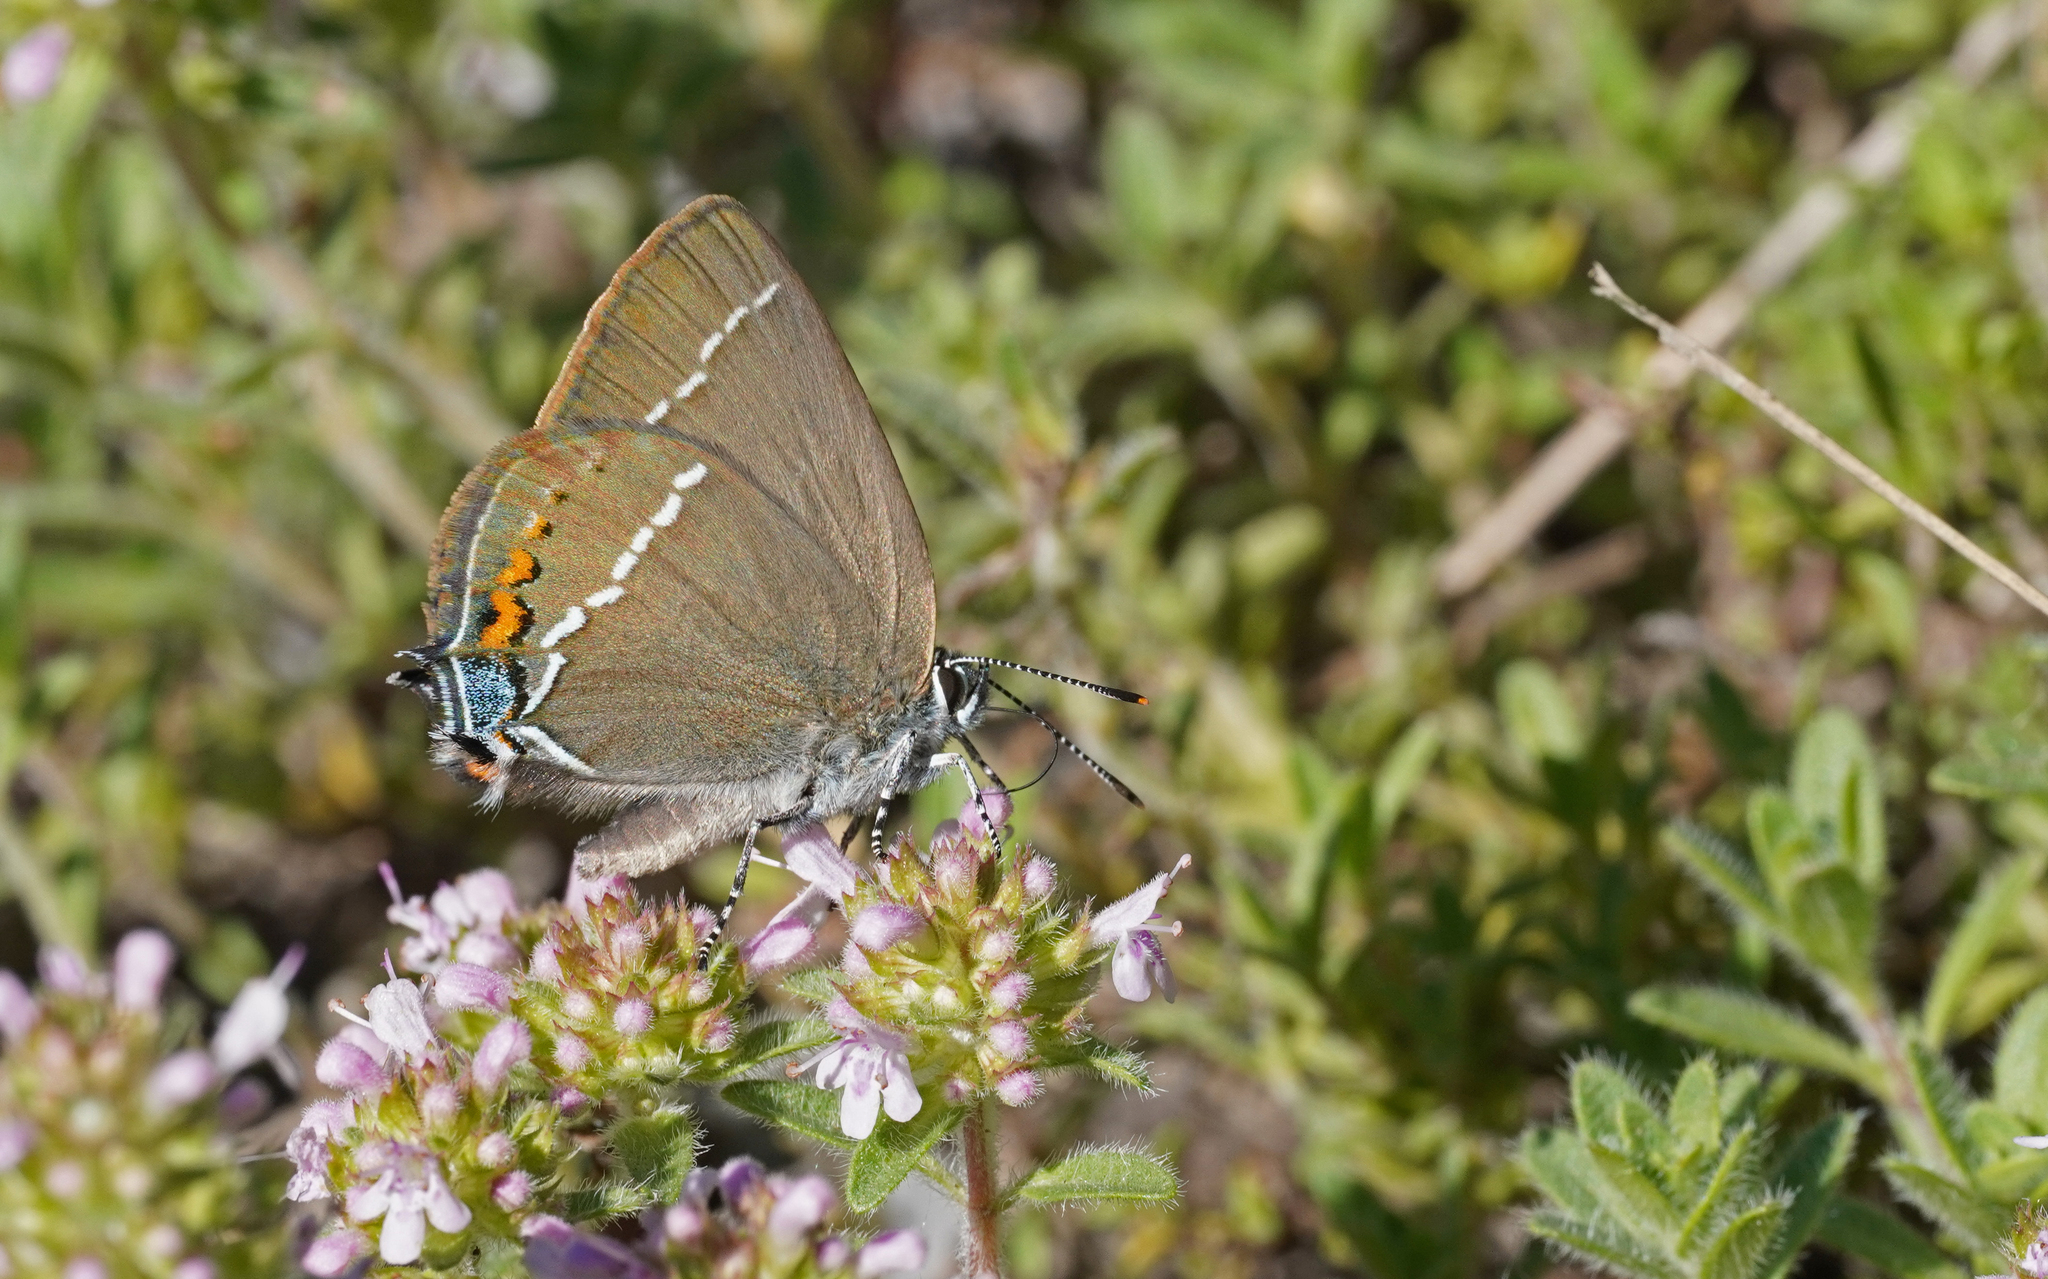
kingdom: Animalia
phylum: Arthropoda
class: Insecta
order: Lepidoptera
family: Lycaenidae
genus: Tuttiola
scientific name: Tuttiola spini
